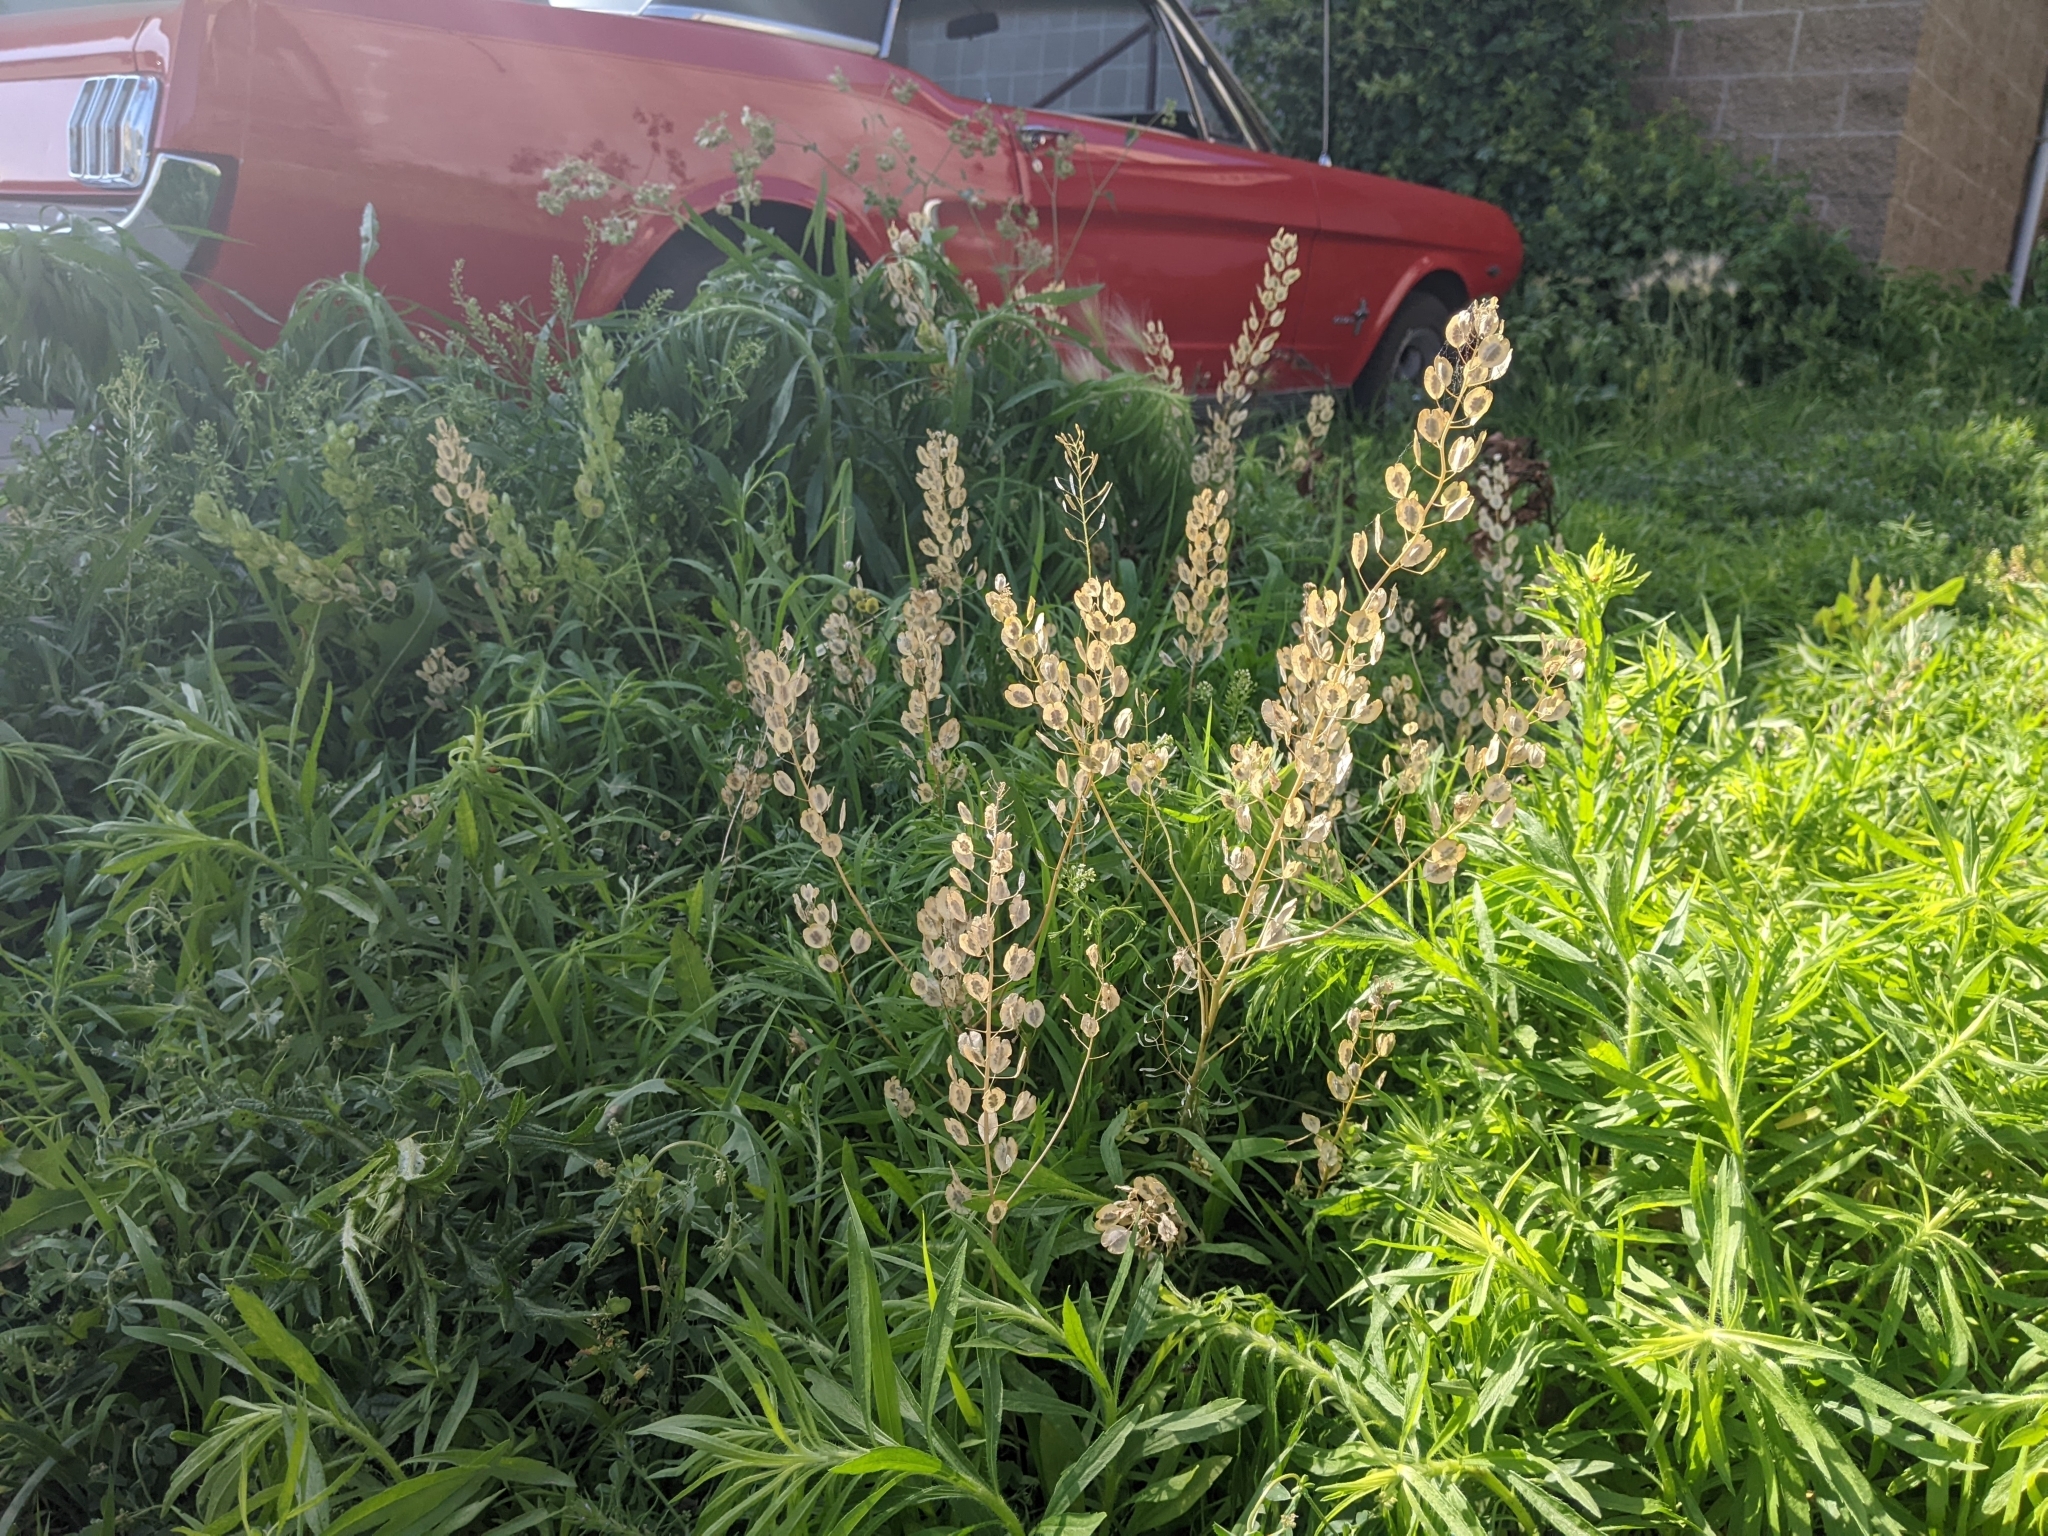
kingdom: Plantae
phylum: Tracheophyta
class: Magnoliopsida
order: Brassicales
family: Brassicaceae
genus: Thlaspi
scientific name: Thlaspi arvense
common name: Field pennycress
